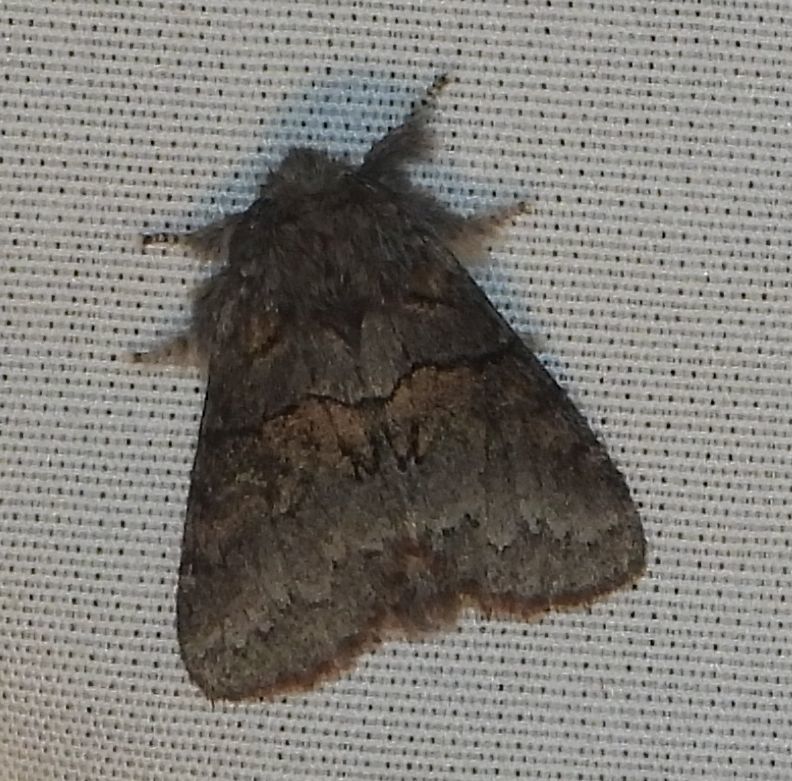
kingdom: Animalia
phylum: Arthropoda
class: Insecta
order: Lepidoptera
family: Notodontidae
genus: Gluphisia
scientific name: Gluphisia septentrionis
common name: Common gluphisia
